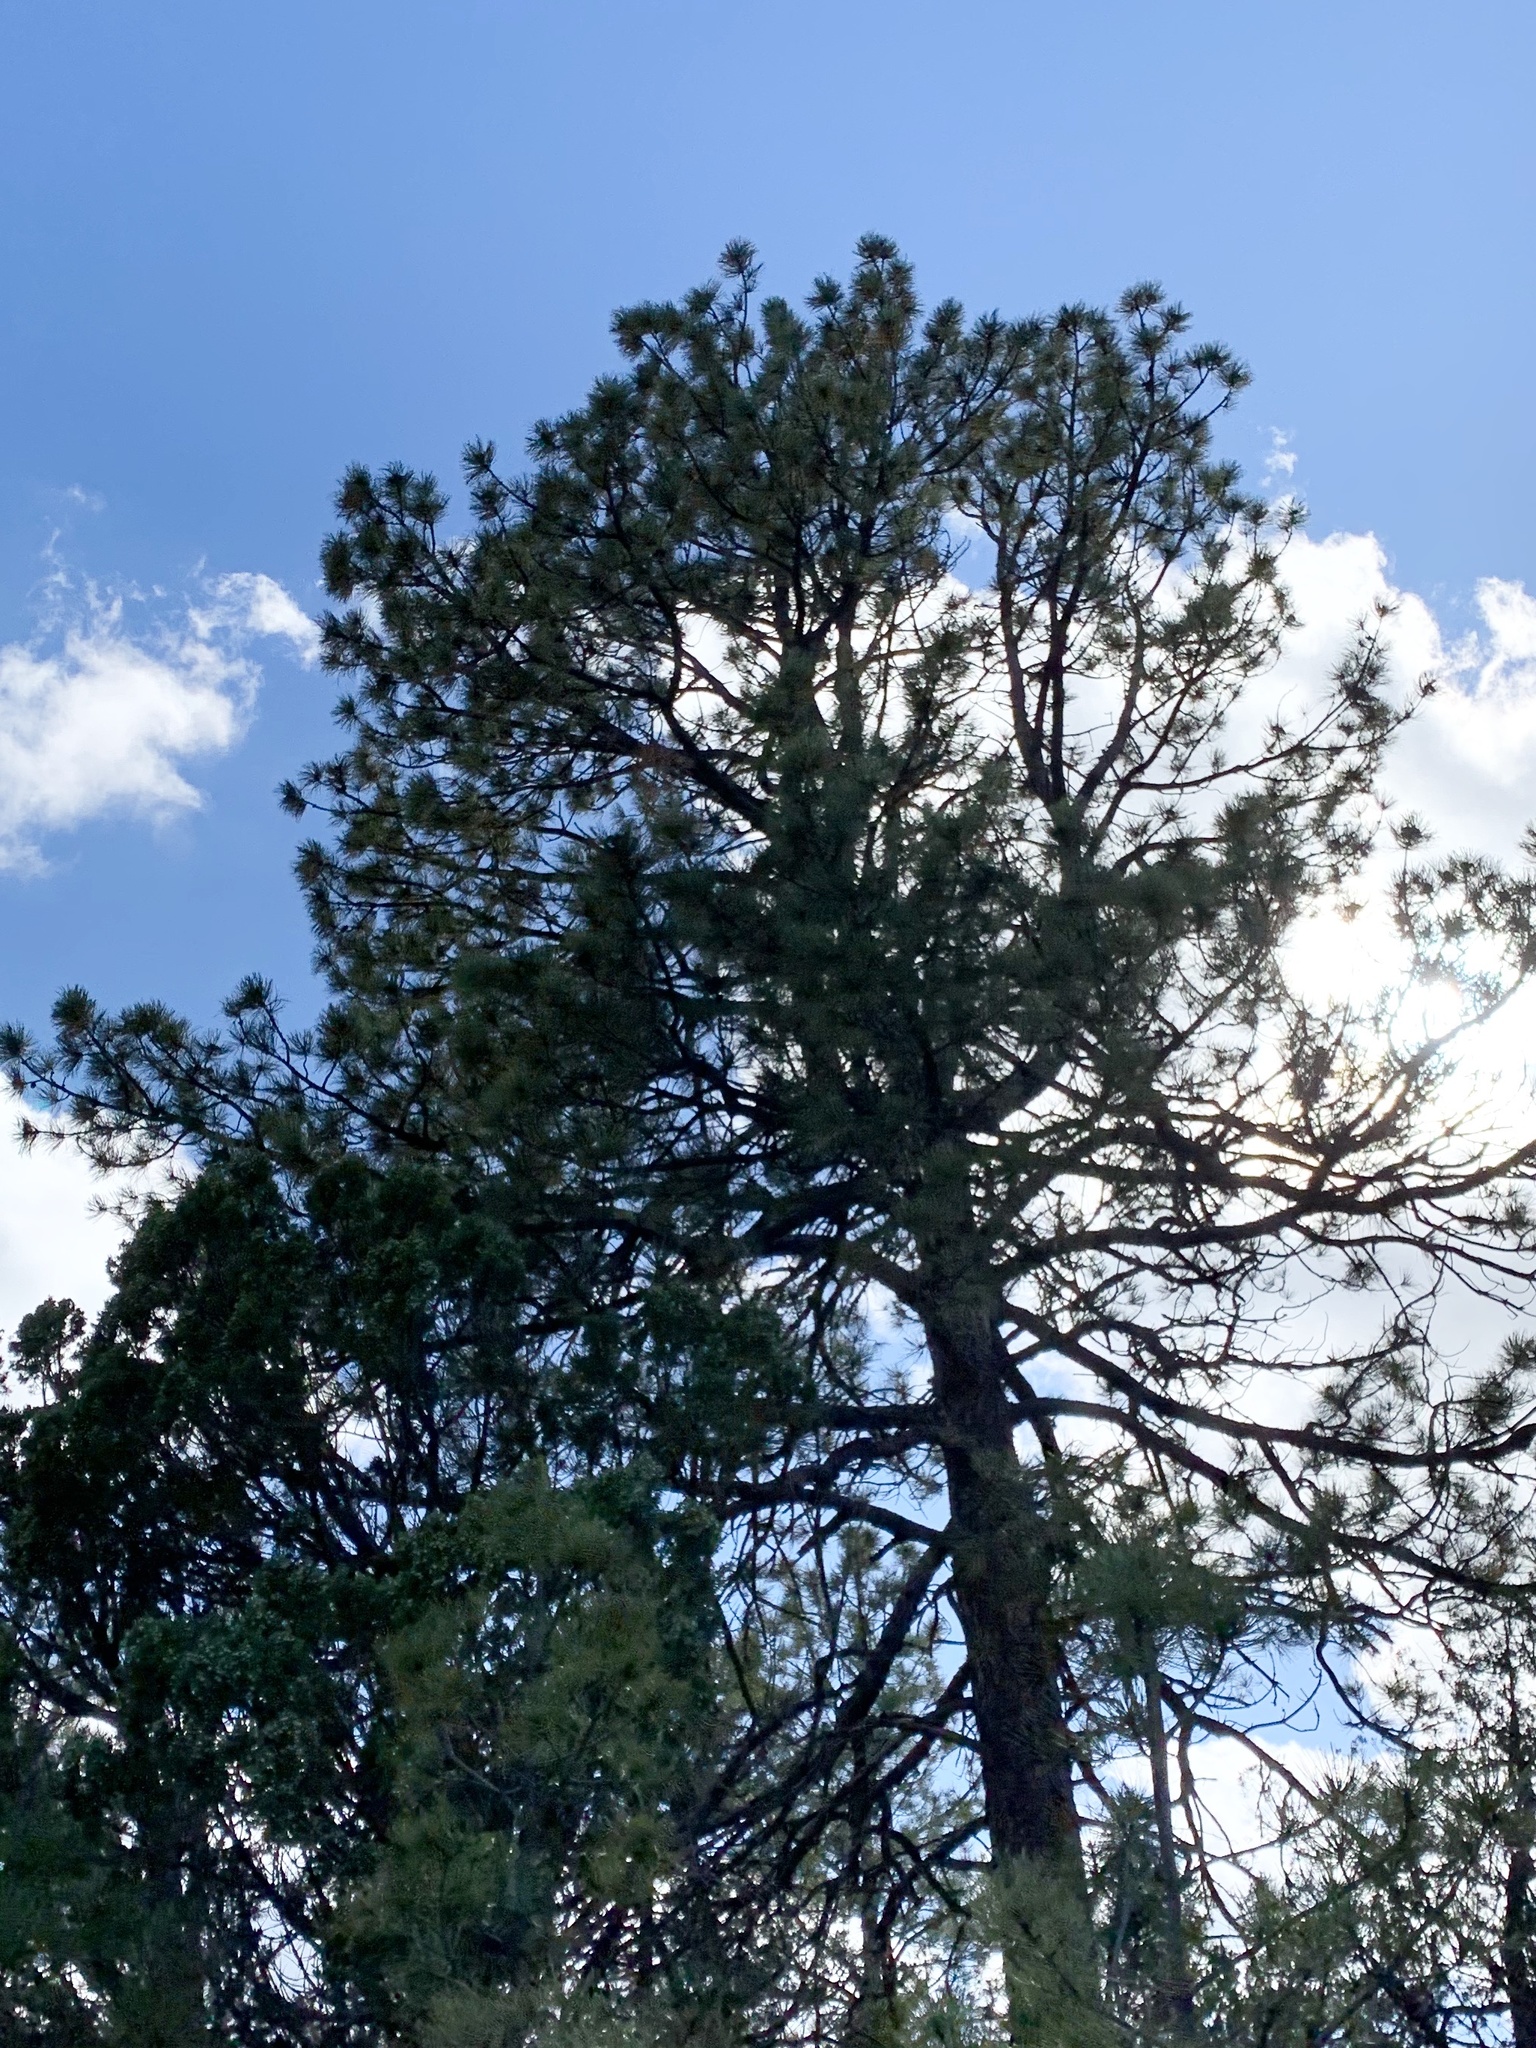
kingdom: Plantae
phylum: Tracheophyta
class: Pinopsida
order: Pinales
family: Pinaceae
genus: Pinus
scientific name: Pinus ponderosa
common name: Western yellow-pine
